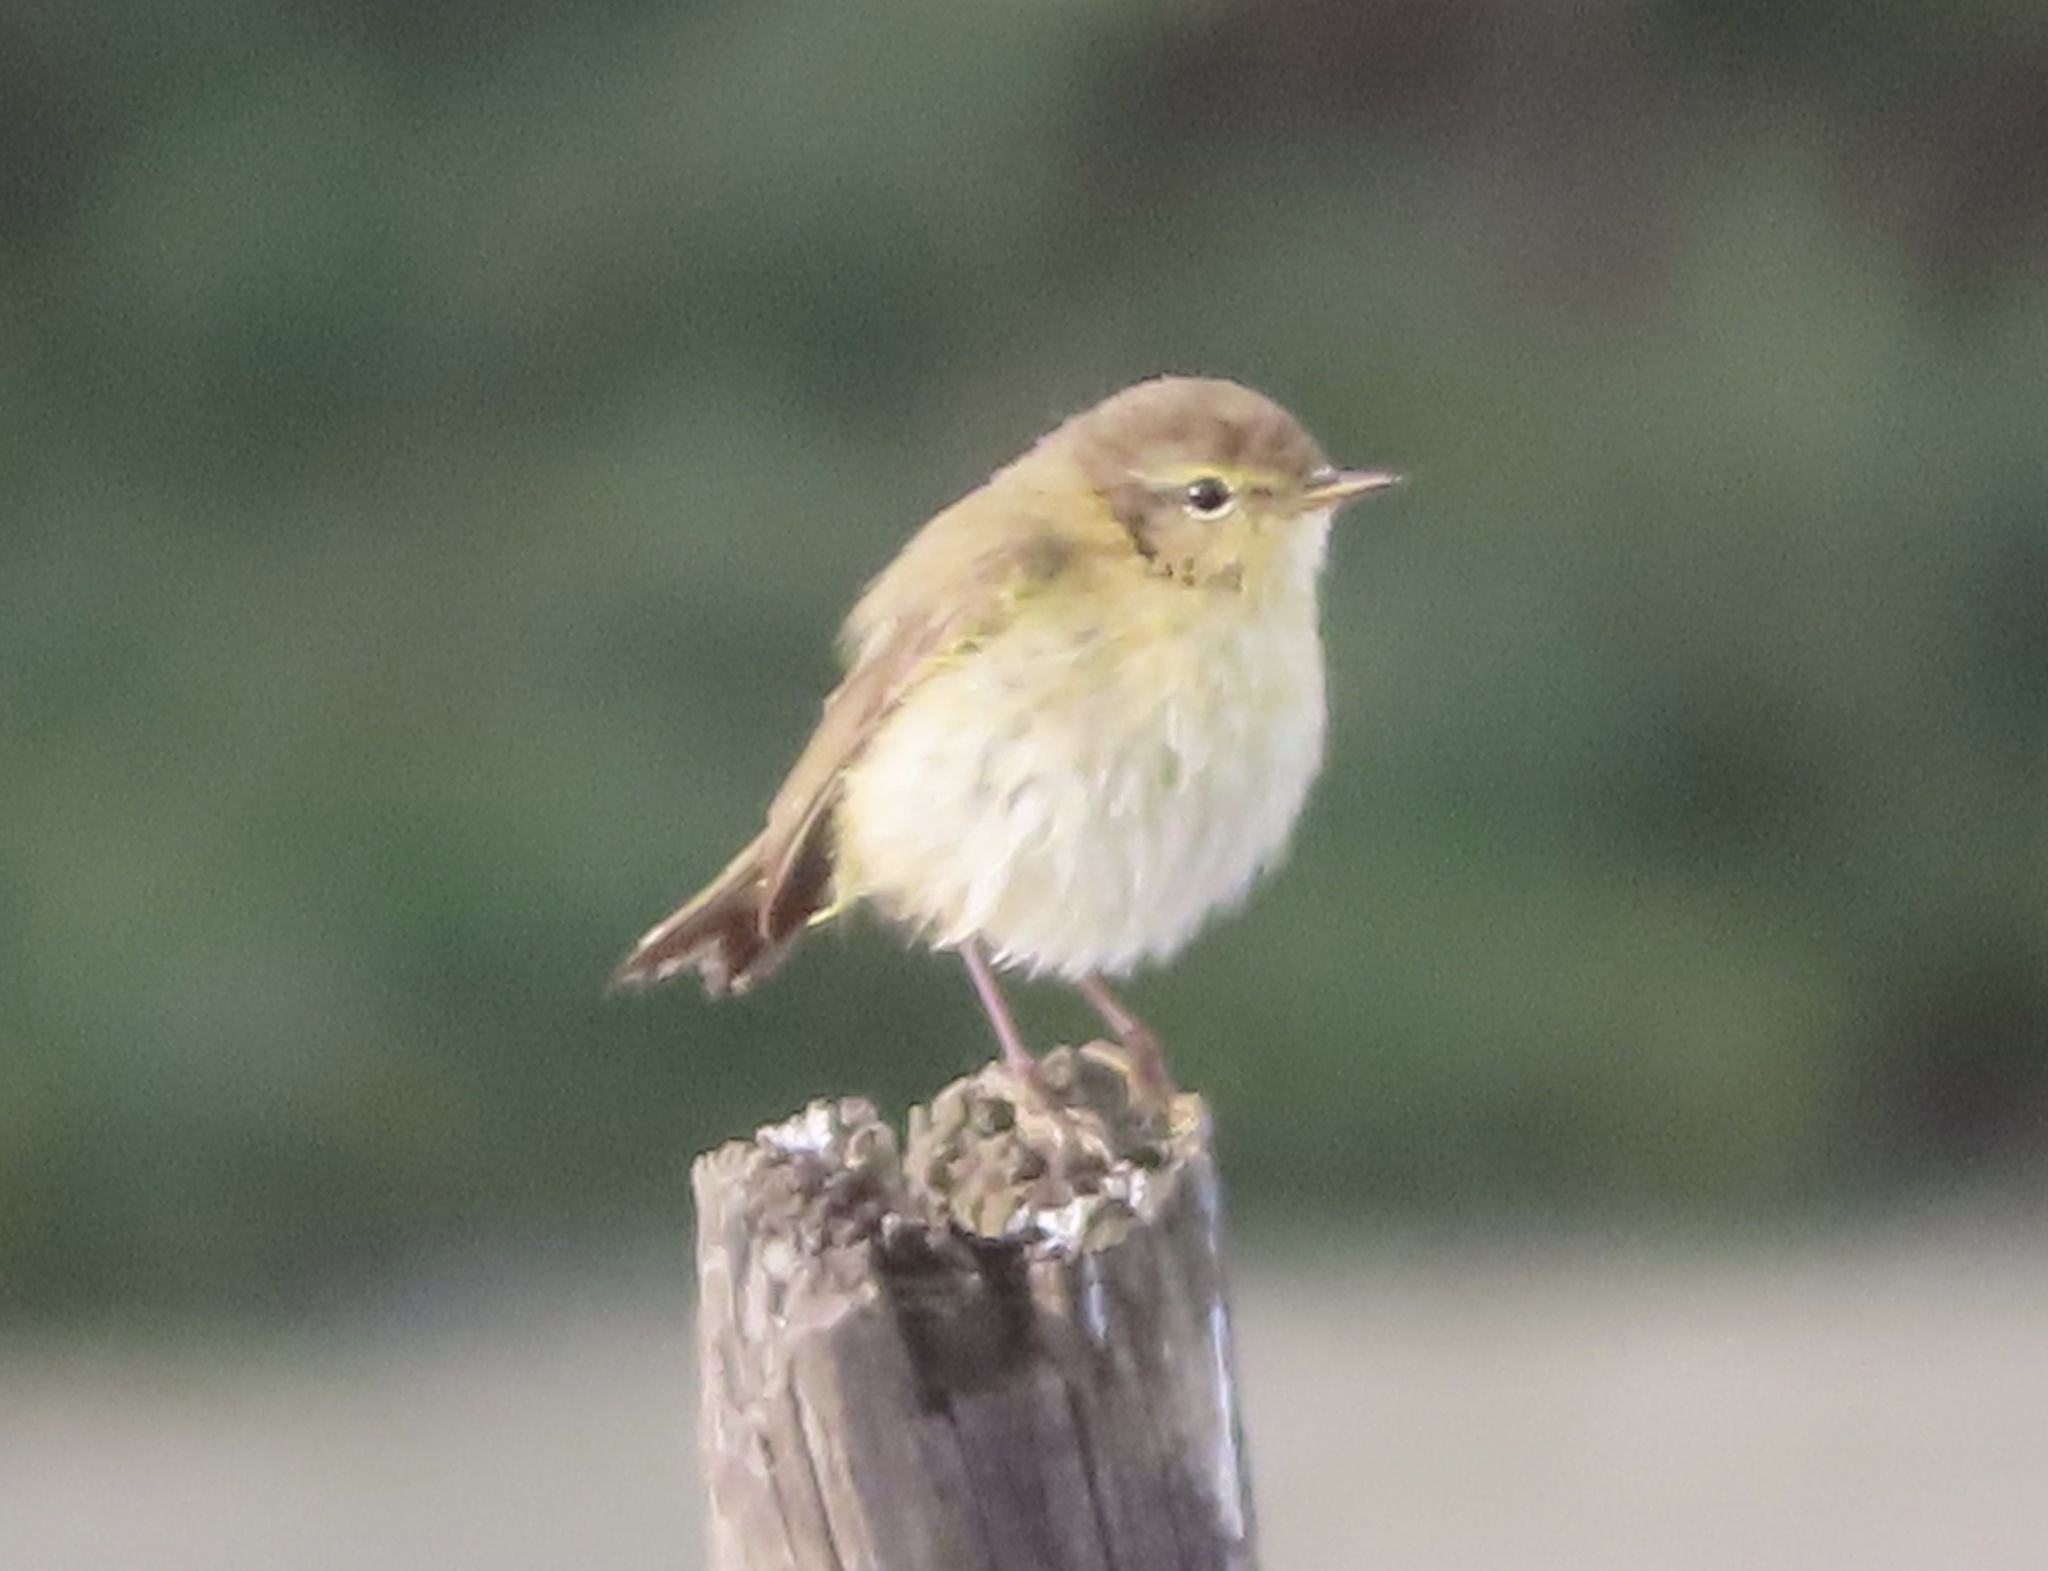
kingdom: Animalia
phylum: Chordata
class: Aves
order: Passeriformes
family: Phylloscopidae
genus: Phylloscopus
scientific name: Phylloscopus ibericus
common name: Iberian chiffchaff
